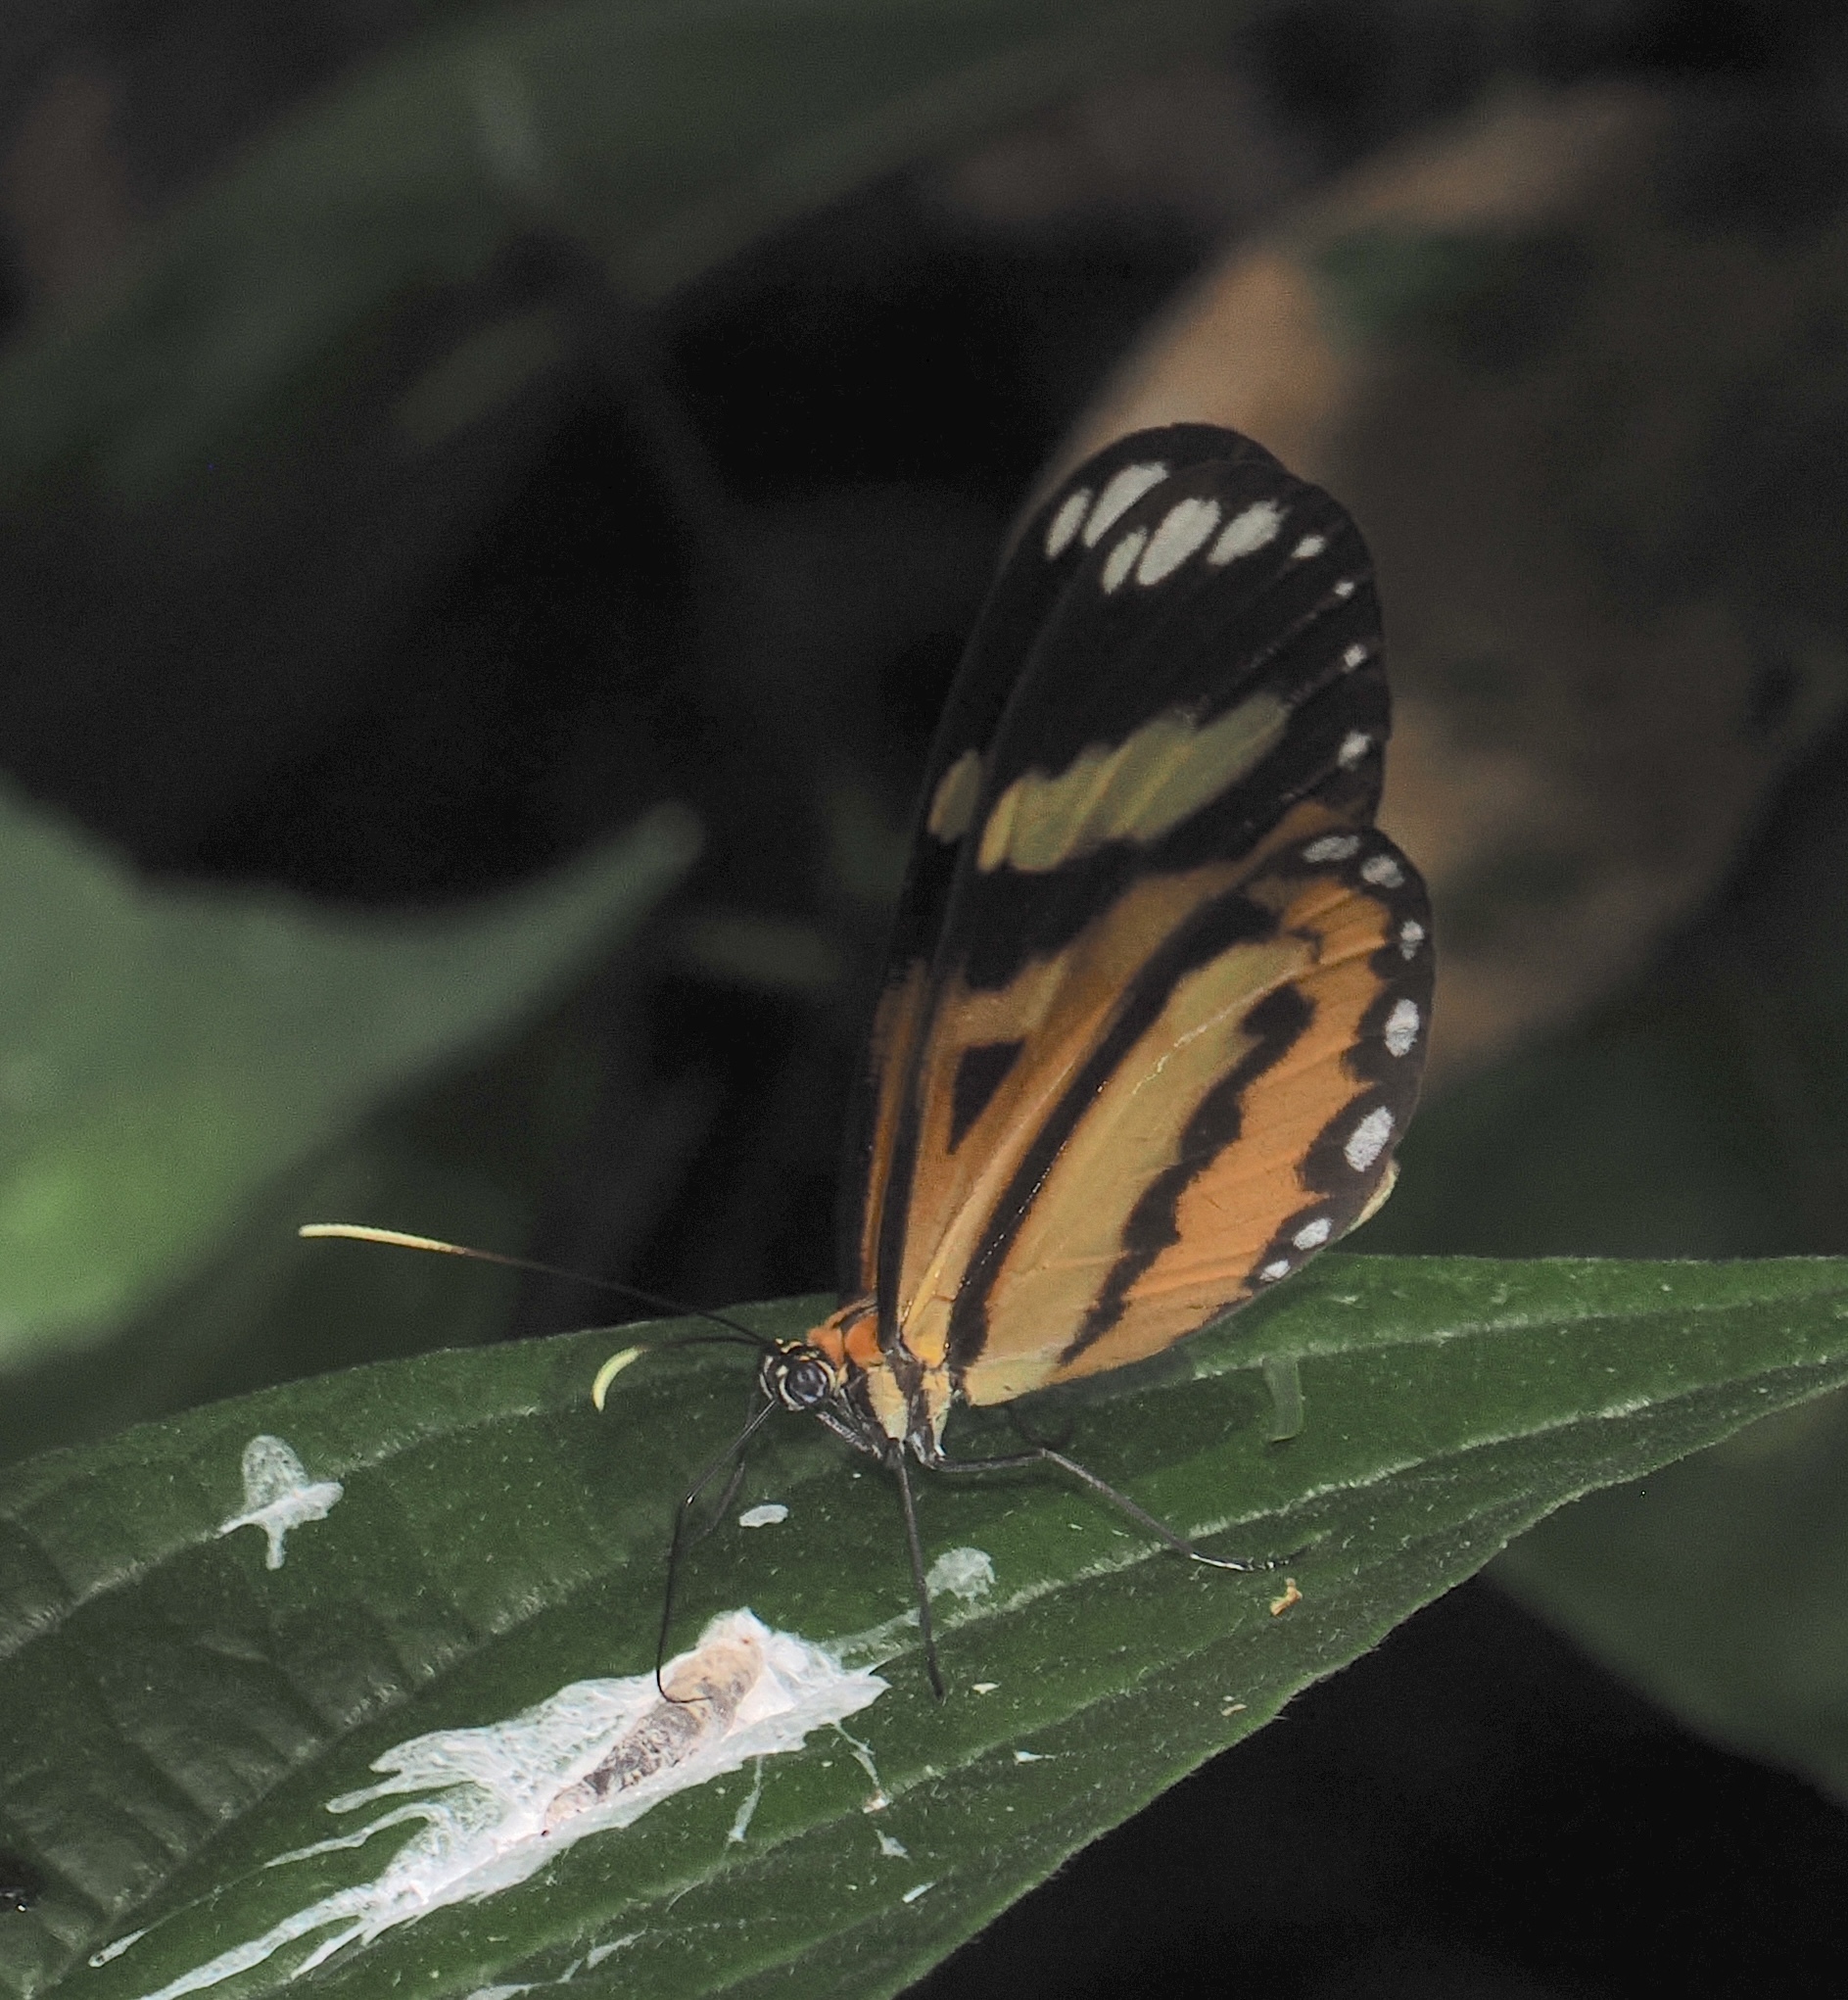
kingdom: Animalia
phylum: Arthropoda
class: Insecta
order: Lepidoptera
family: Nymphalidae
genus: Hypothyris
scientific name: Hypothyris ninonia
